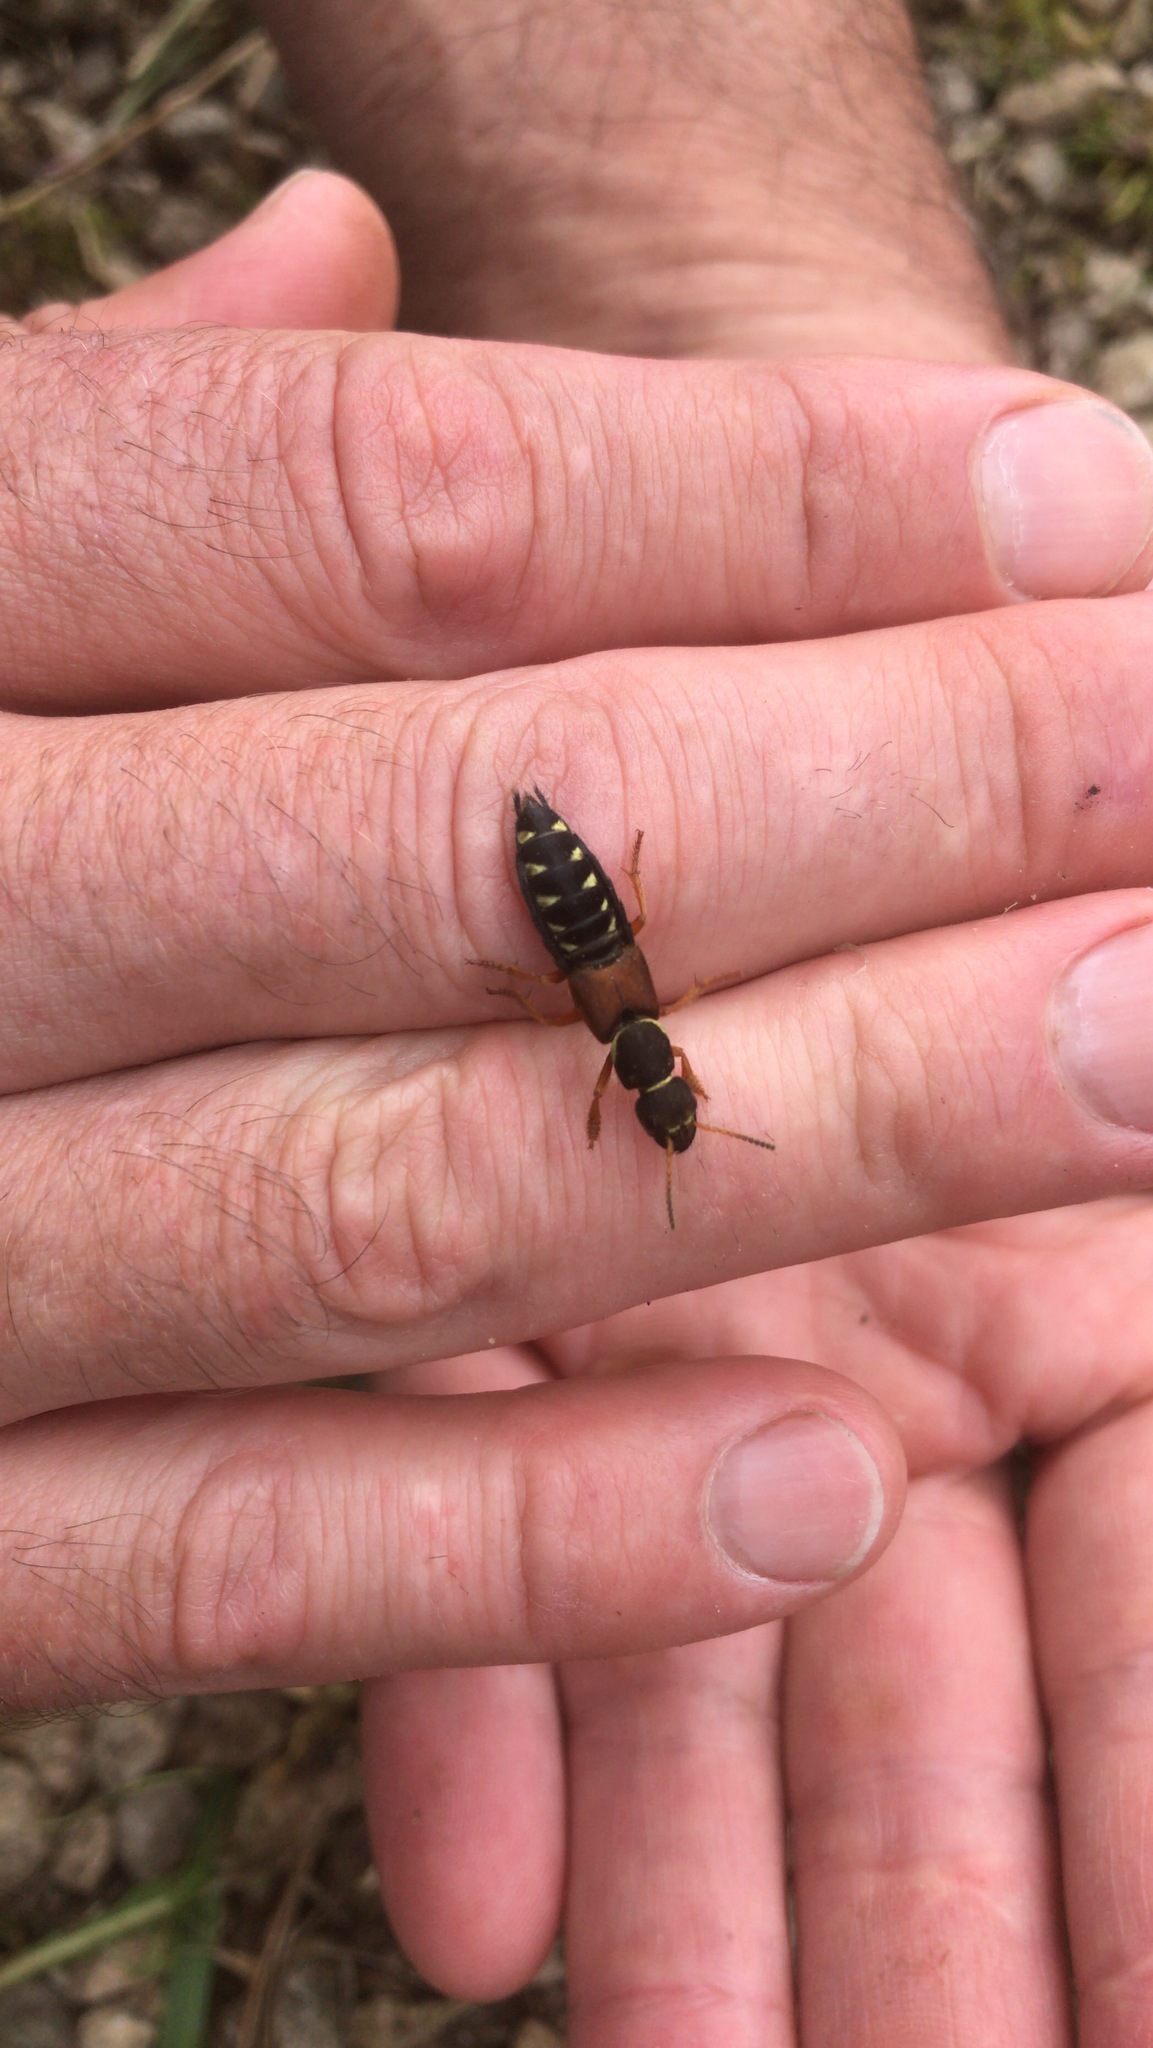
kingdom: Animalia
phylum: Arthropoda
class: Insecta
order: Coleoptera
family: Staphylinidae
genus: Staphylinus
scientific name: Staphylinus dimidiaticornis
